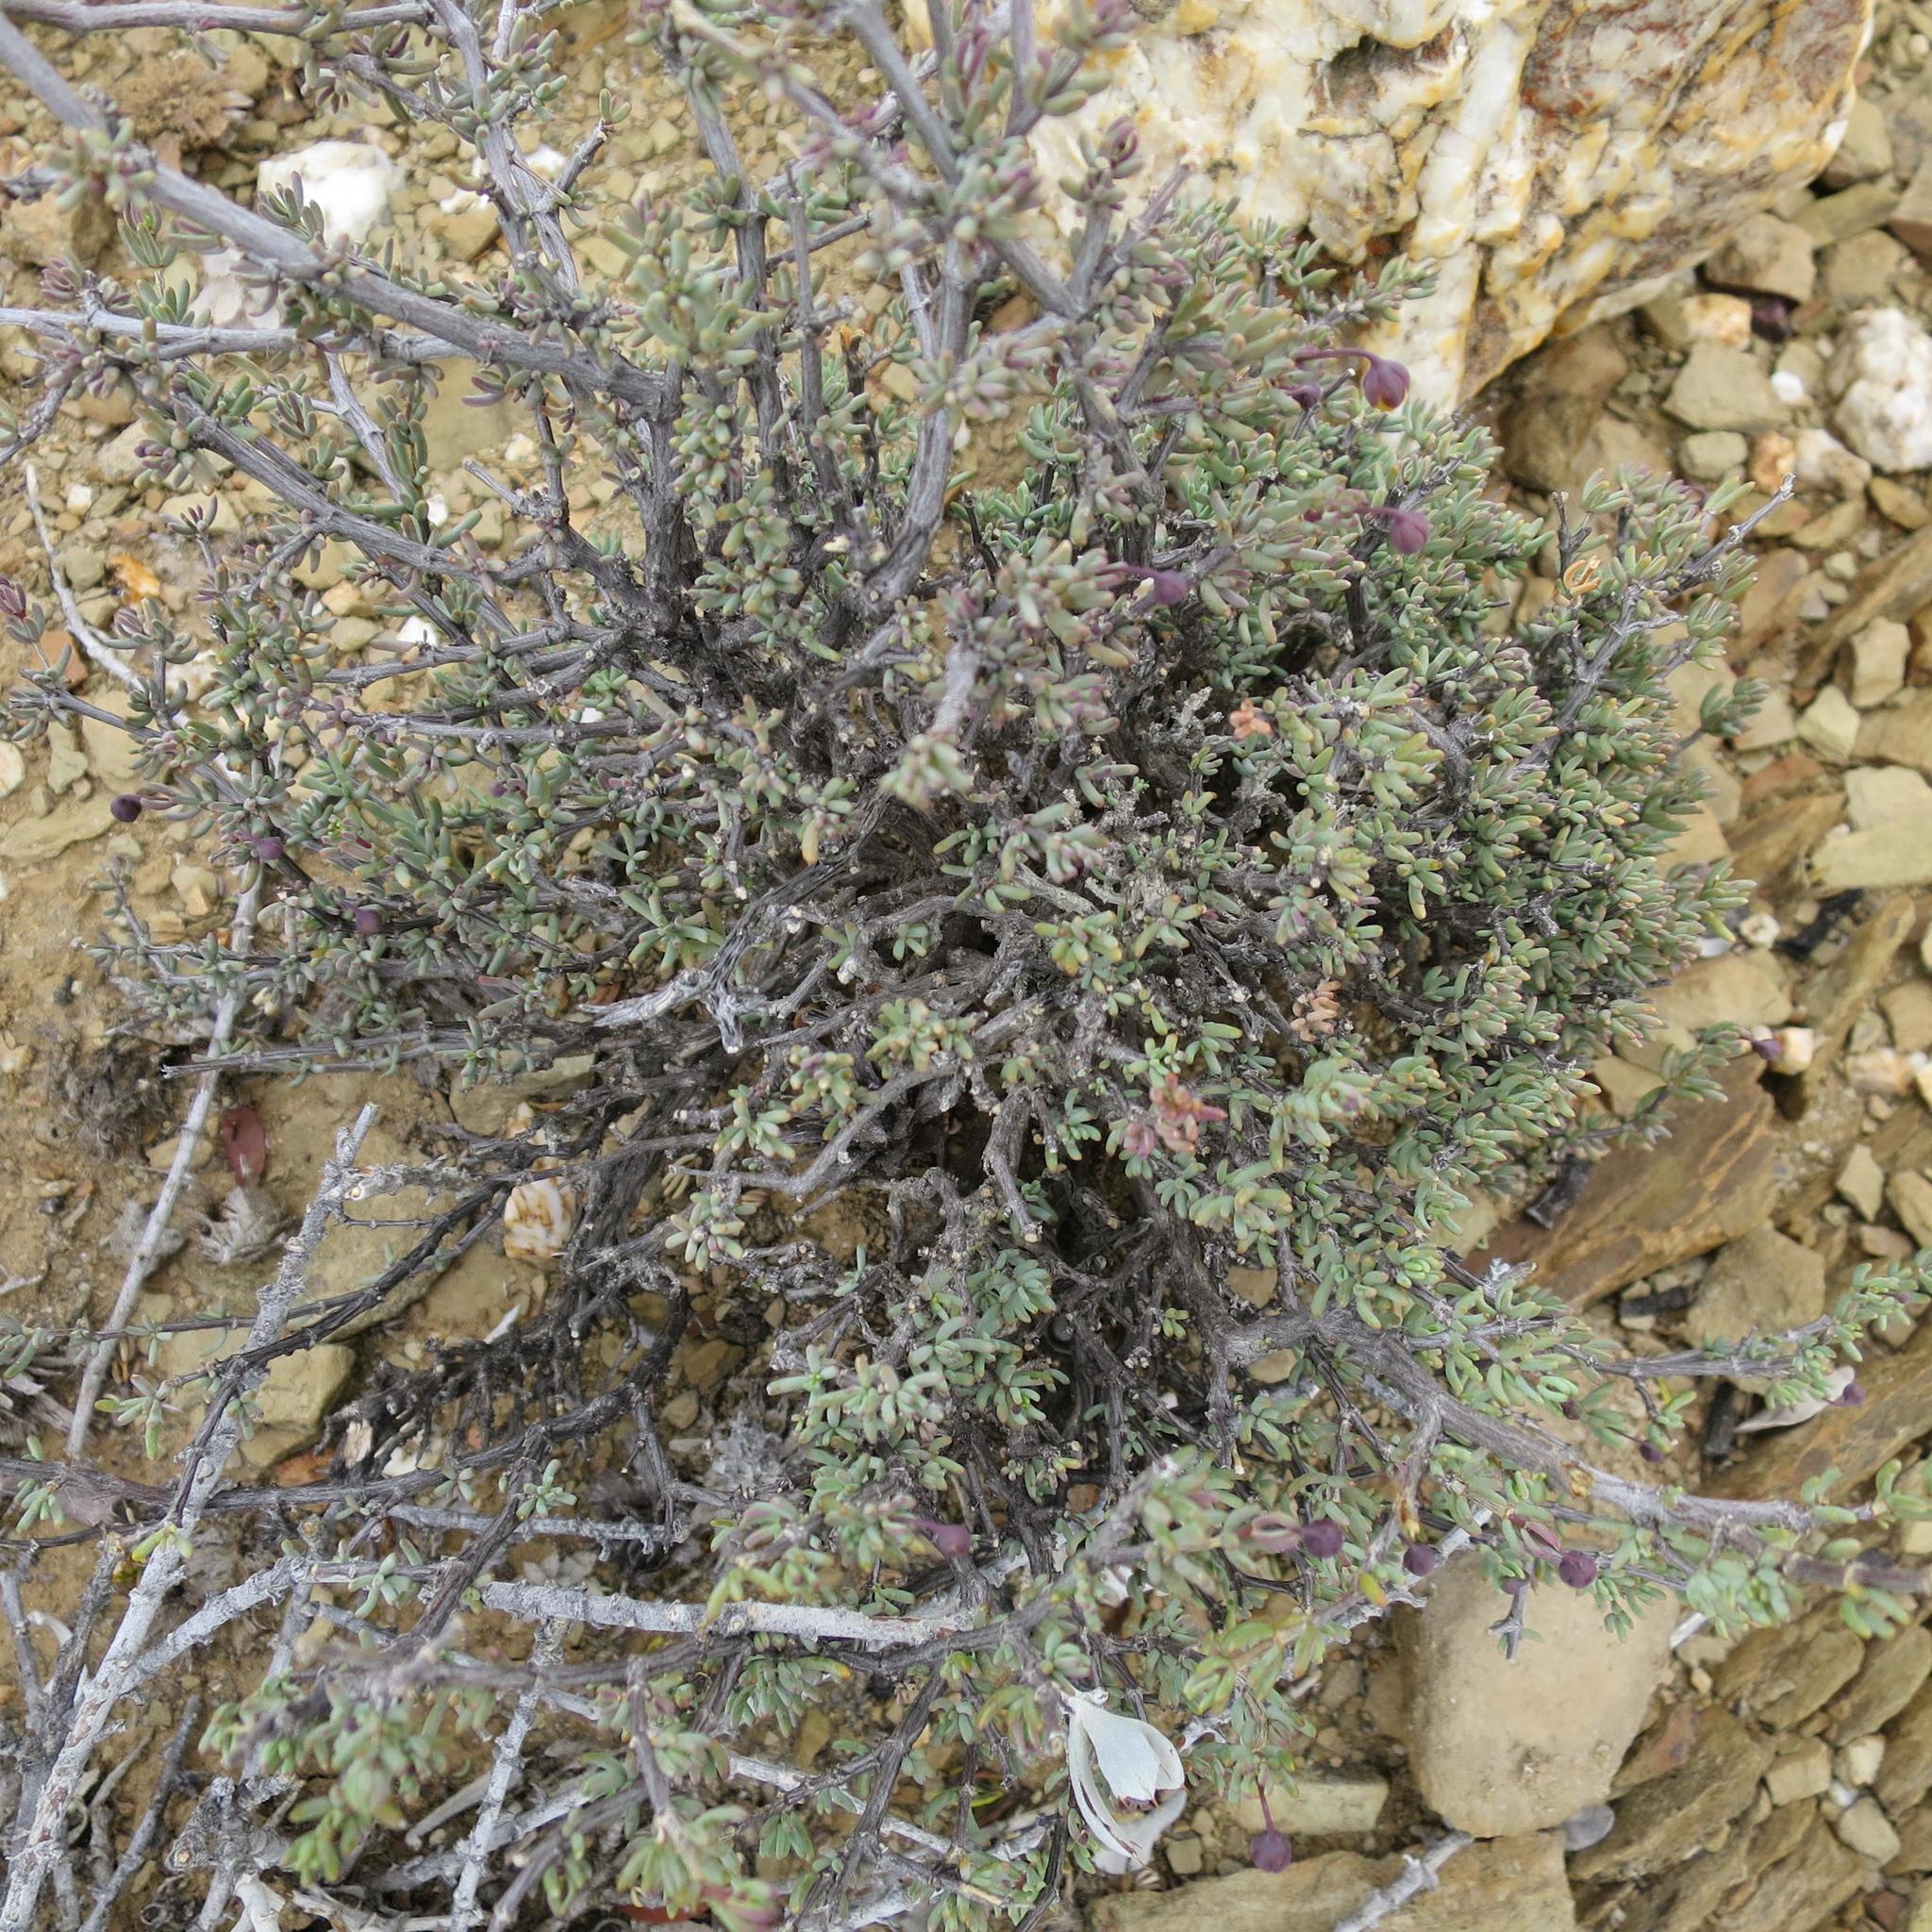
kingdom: Plantae
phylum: Tracheophyta
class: Magnoliopsida
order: Fabales
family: Fabaceae
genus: Lotononis
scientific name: Lotononis dahlgrenii
